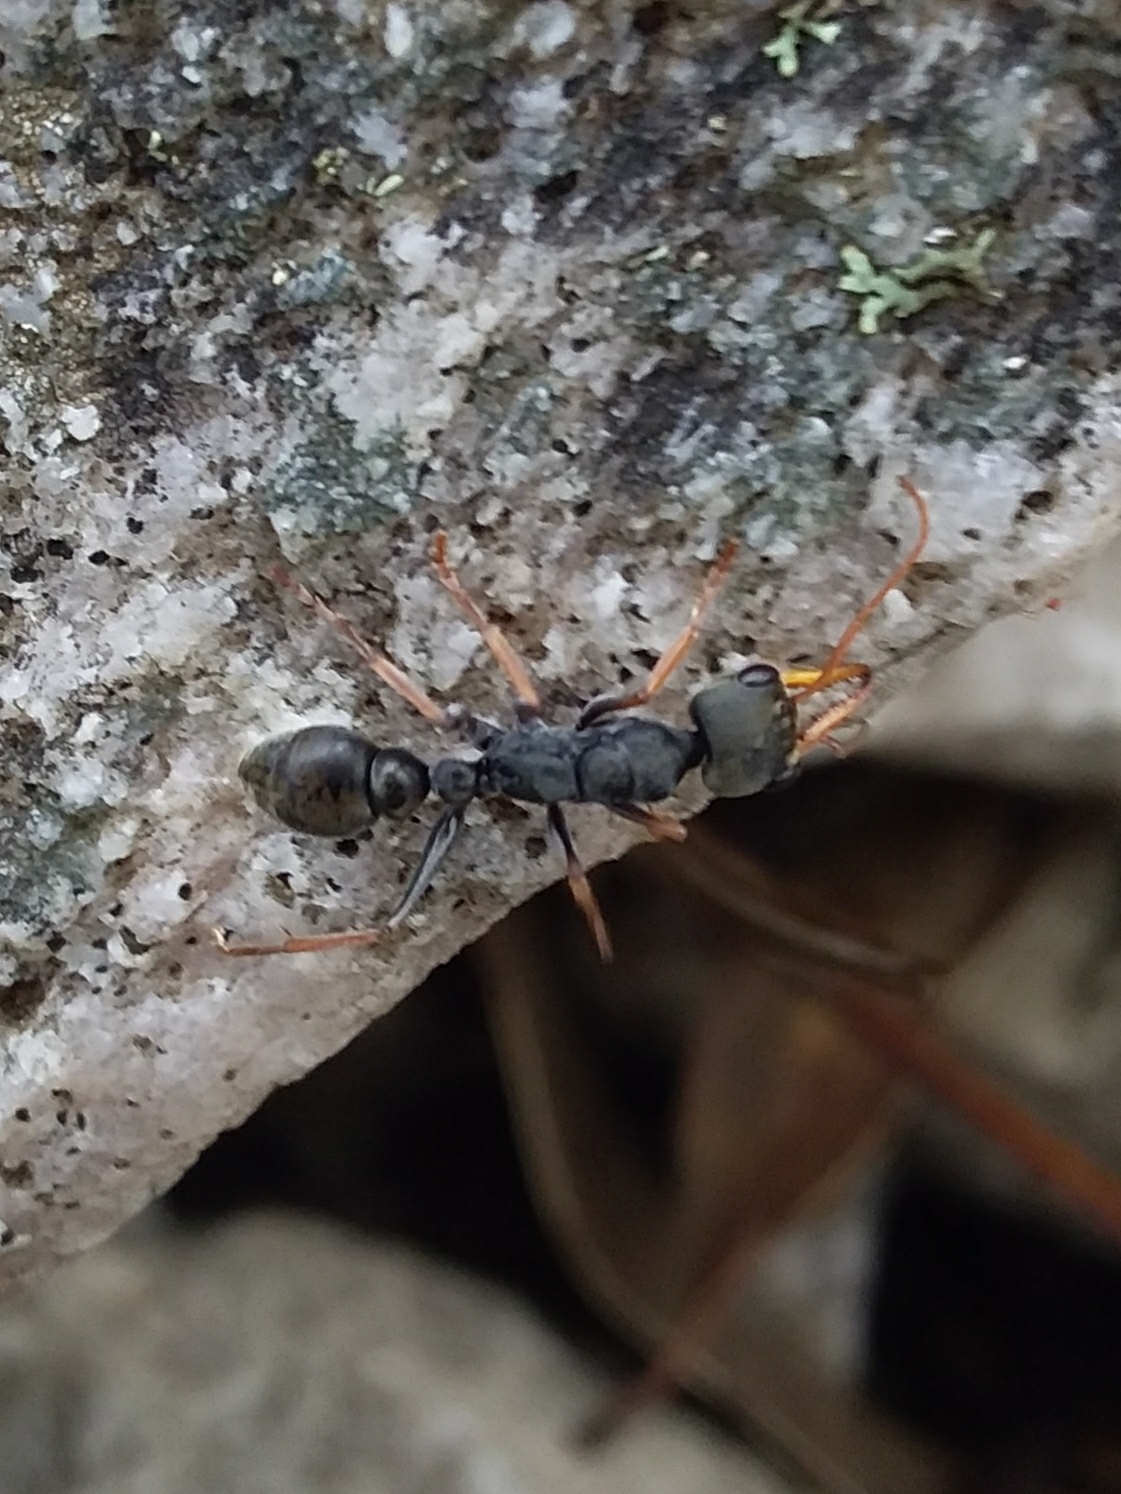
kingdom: Animalia
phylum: Arthropoda
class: Insecta
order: Hymenoptera
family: Formicidae
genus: Myrmecia
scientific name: Myrmecia pilosula
